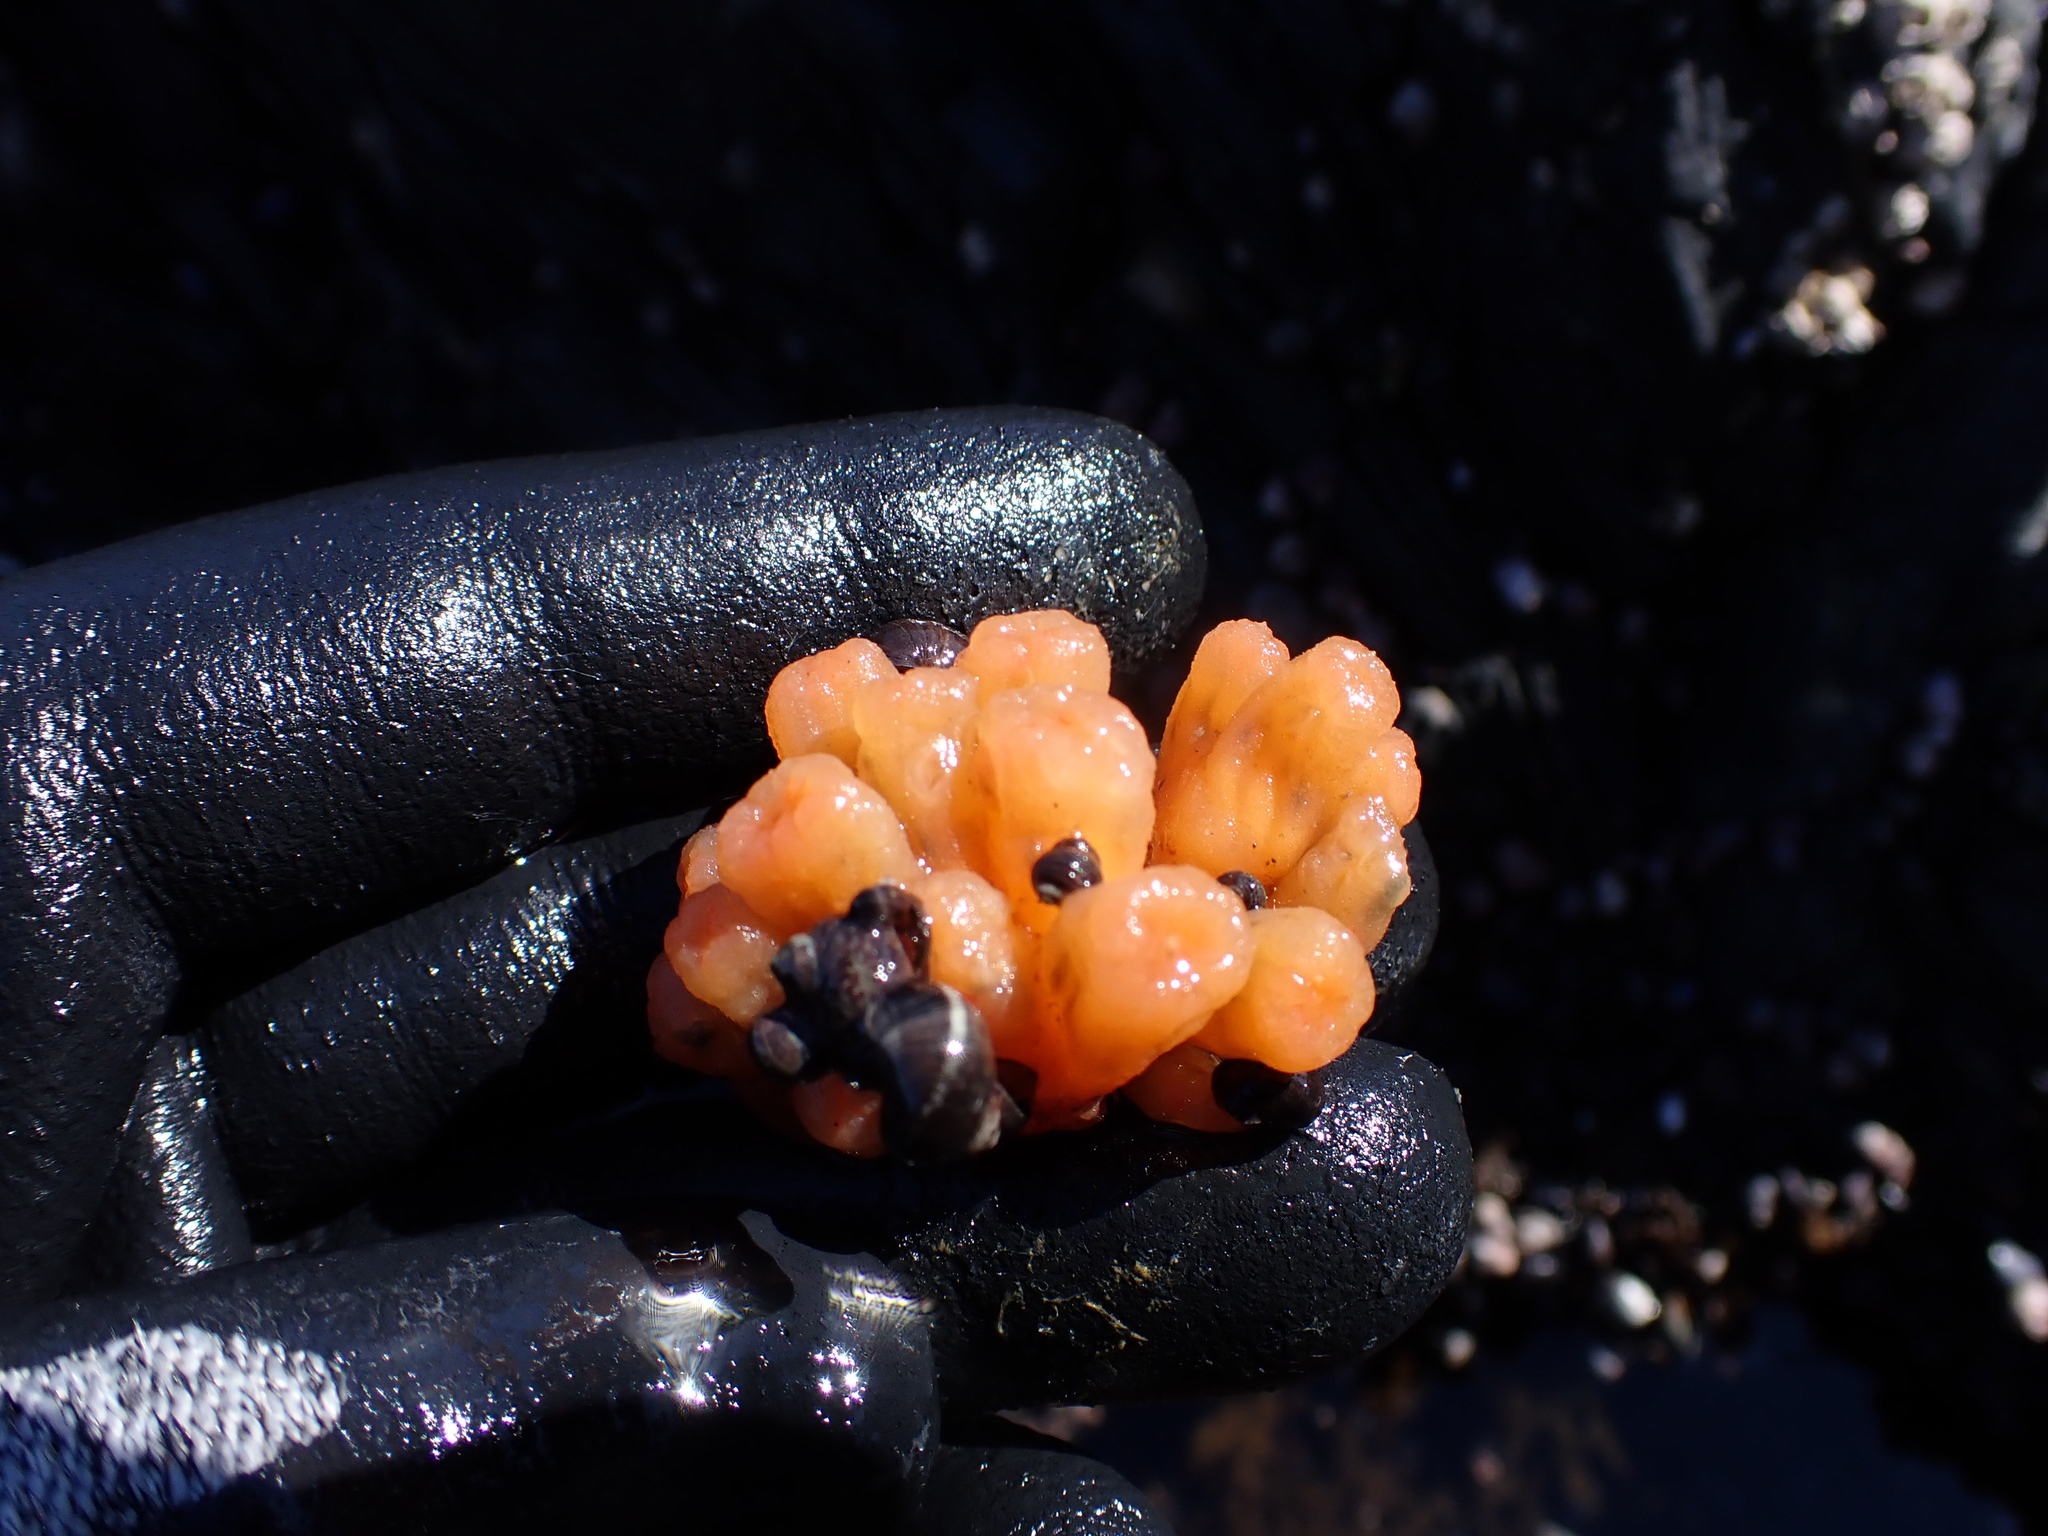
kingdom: Animalia
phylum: Chordata
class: Ascidiacea
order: Aplousobranchia
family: Polyclinidae
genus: Aplidium
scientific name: Aplidium coei
